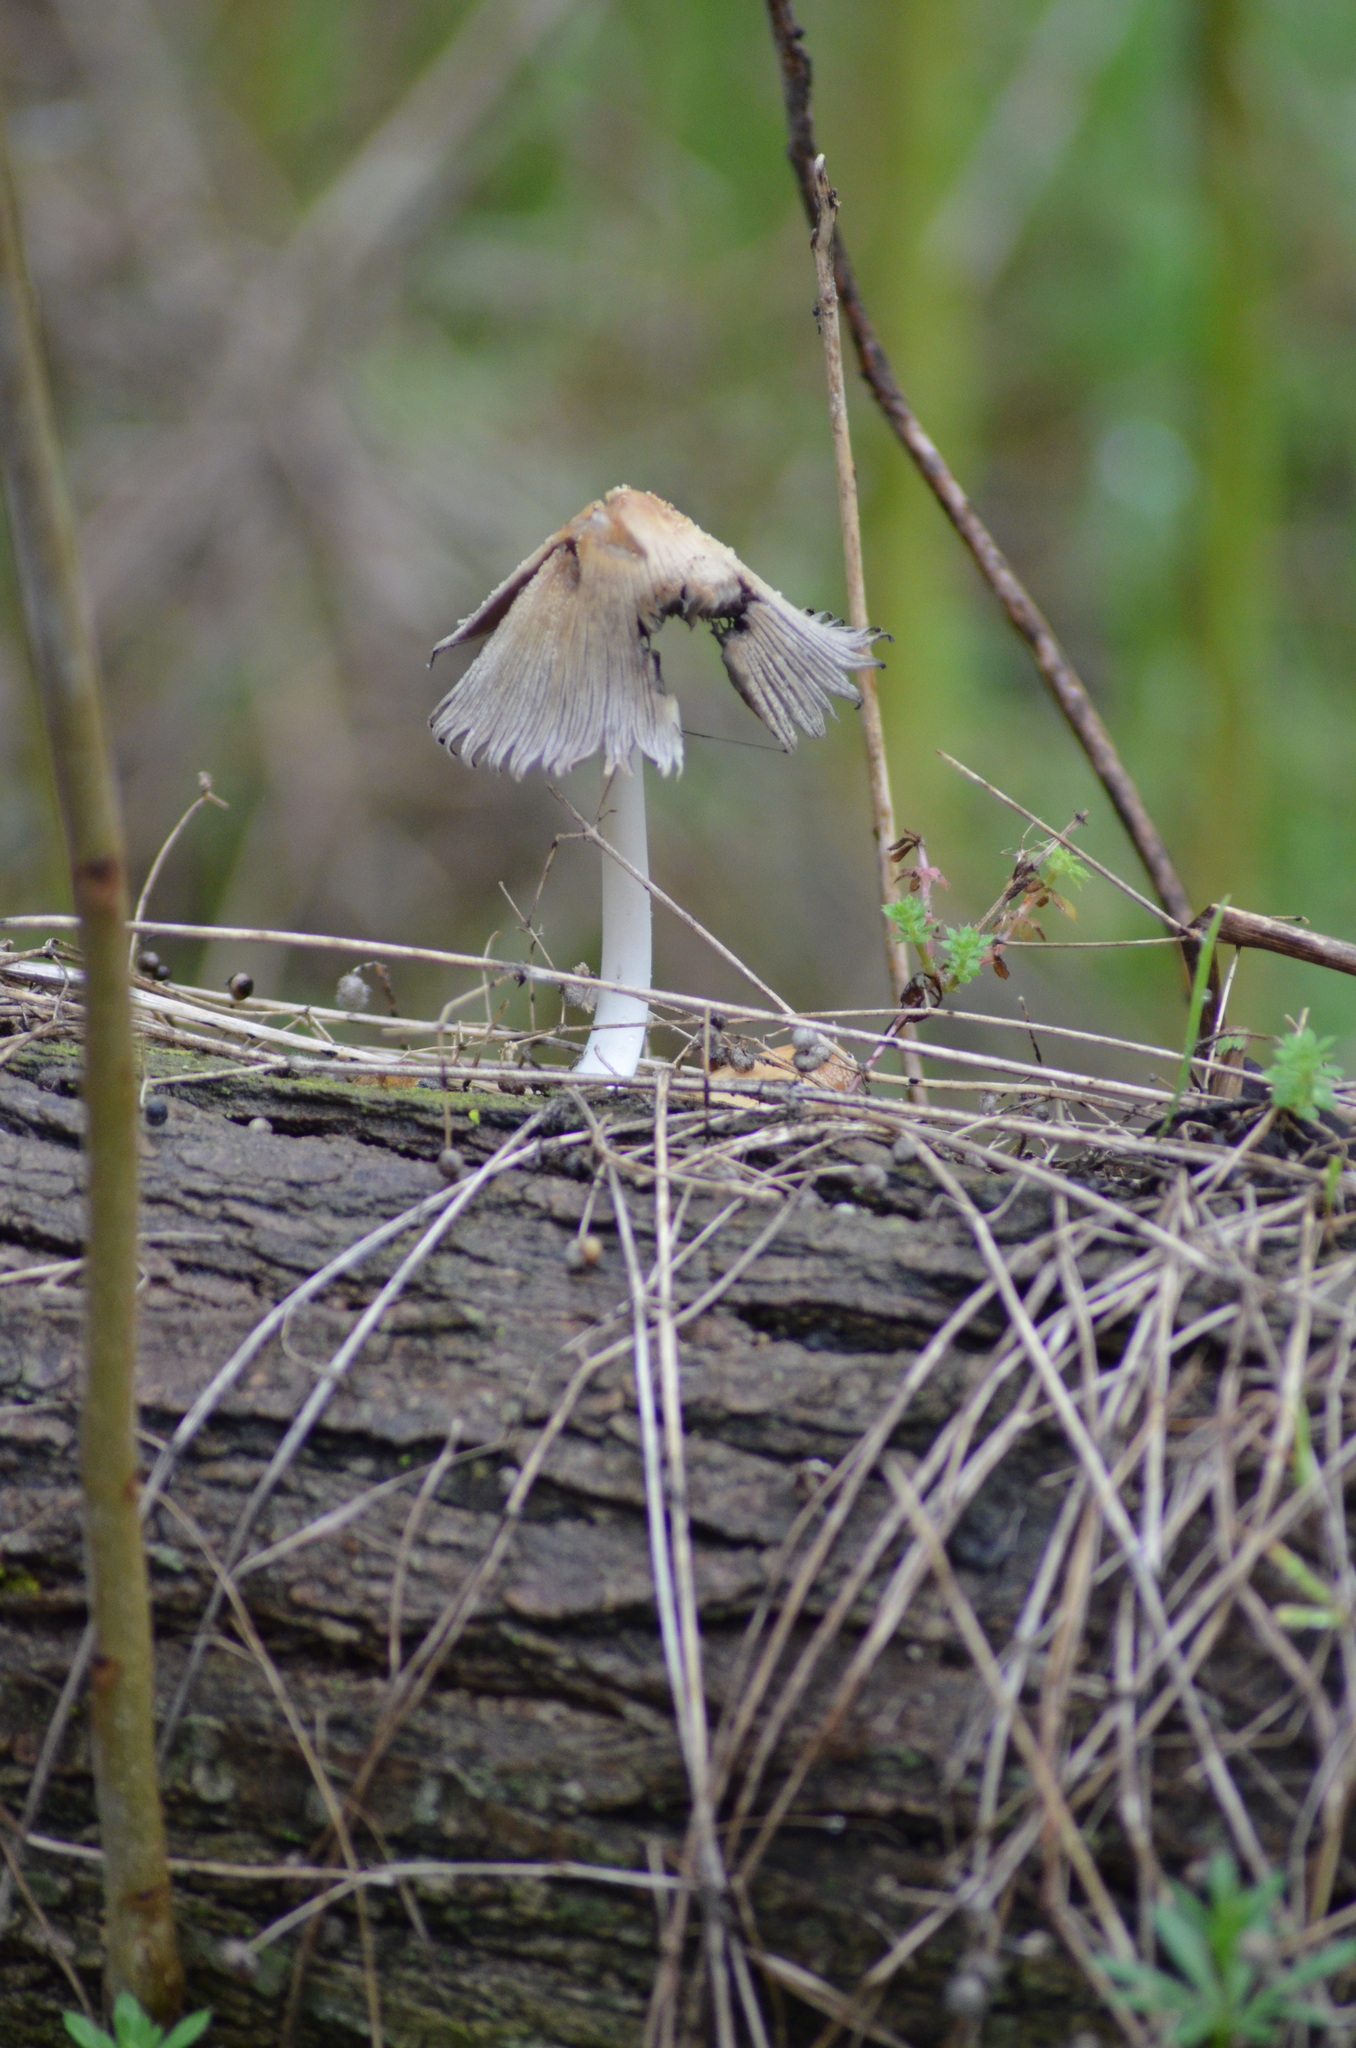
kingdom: Fungi
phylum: Basidiomycota
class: Agaricomycetes
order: Agaricales
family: Psathyrellaceae
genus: Coprinopsis
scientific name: Coprinopsis atramentaria
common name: Common ink-cap
